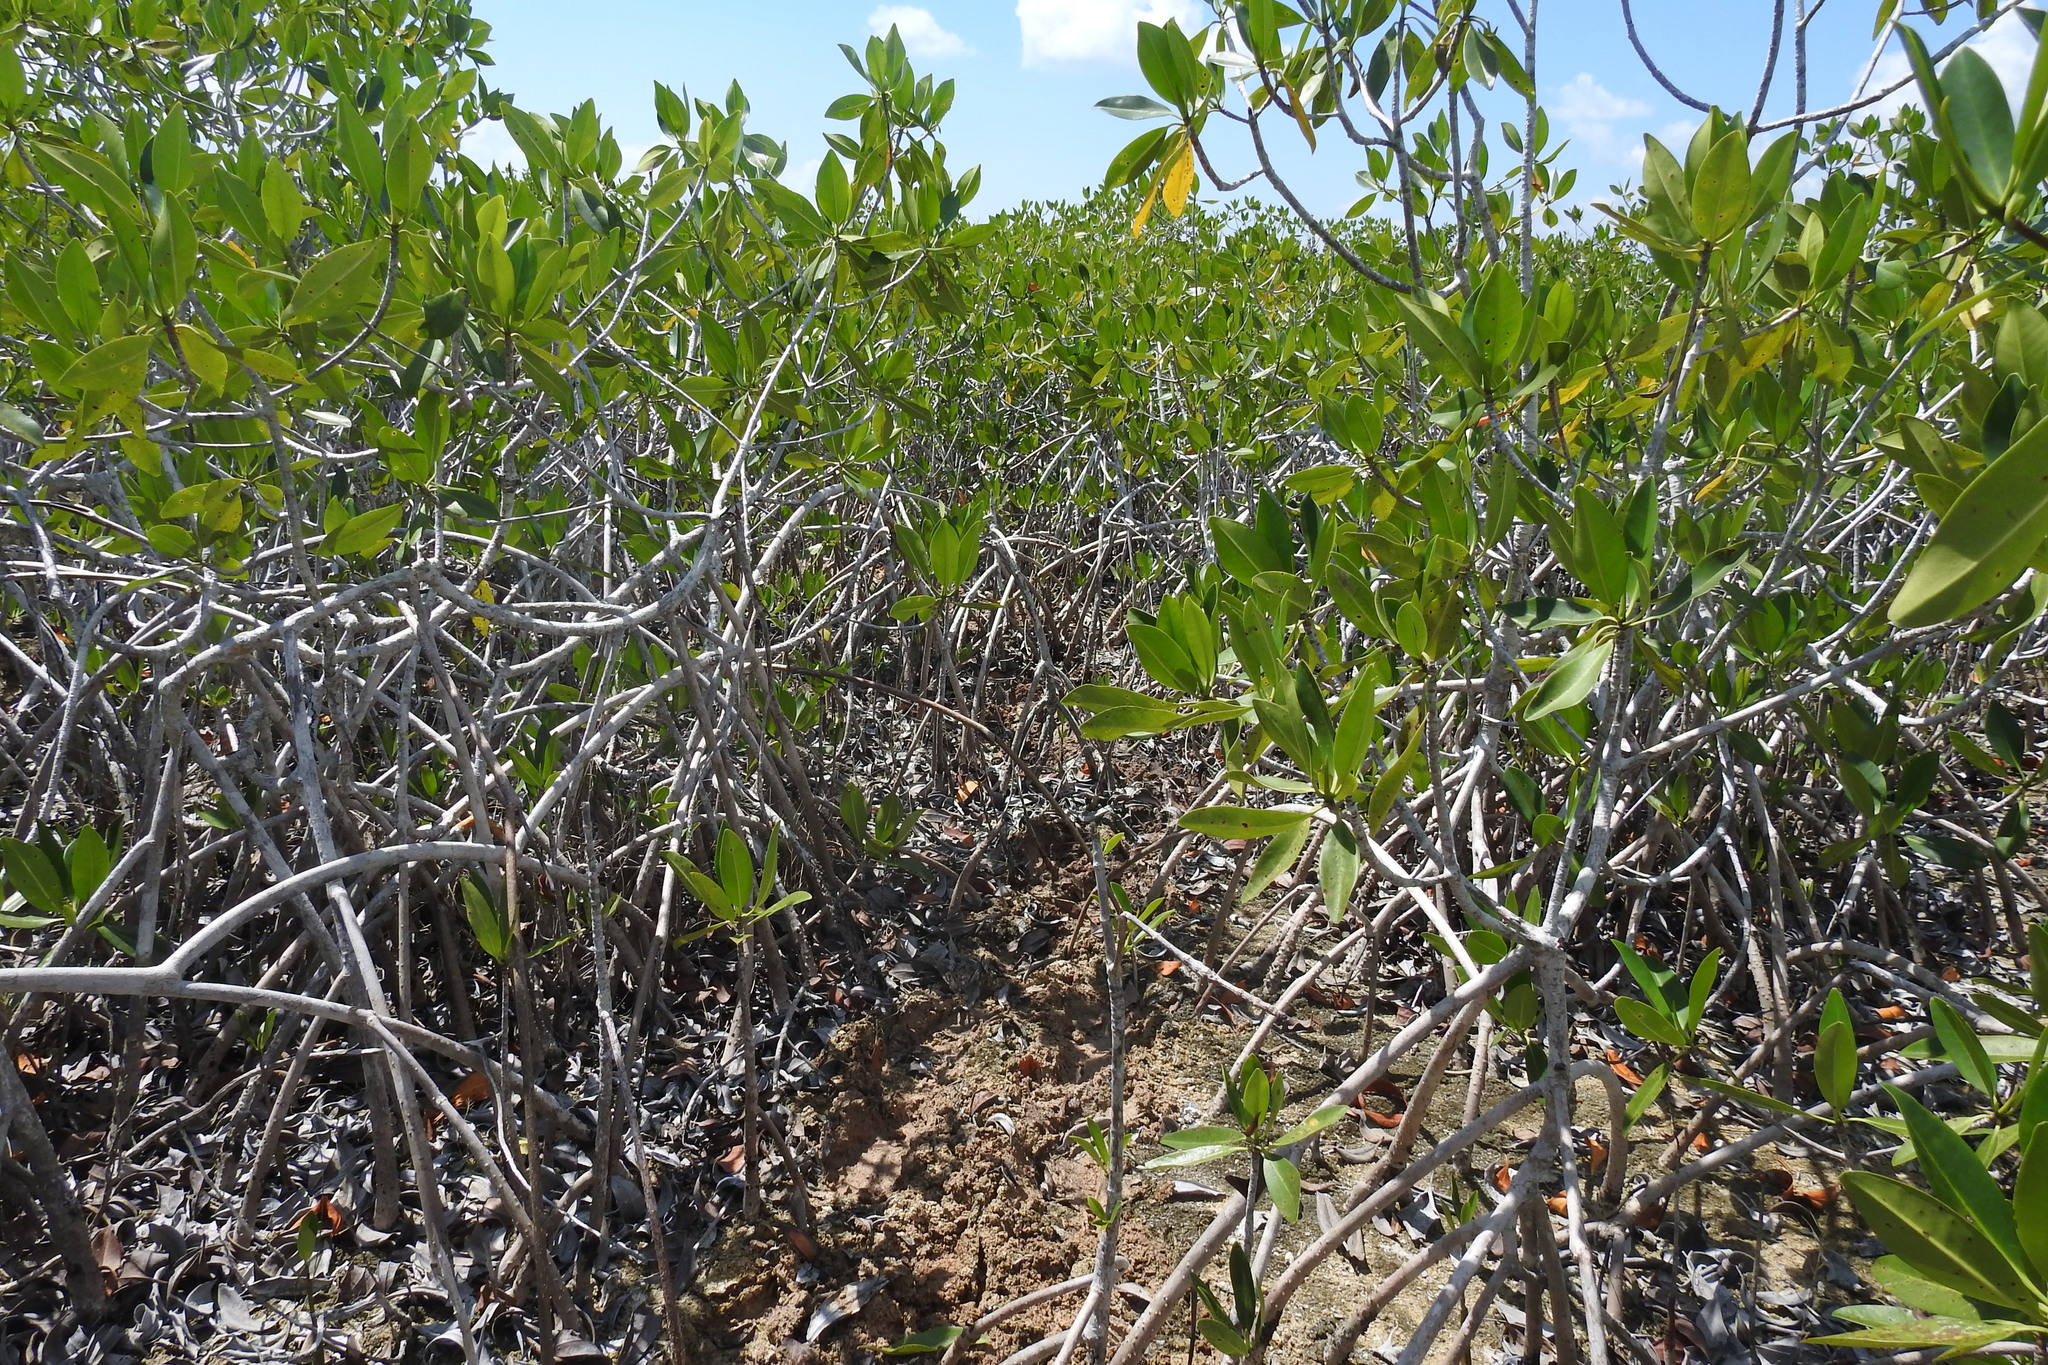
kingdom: Plantae
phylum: Tracheophyta
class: Magnoliopsida
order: Malpighiales
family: Rhizophoraceae
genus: Rhizophora
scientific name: Rhizophora mangle
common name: Red mangrove
